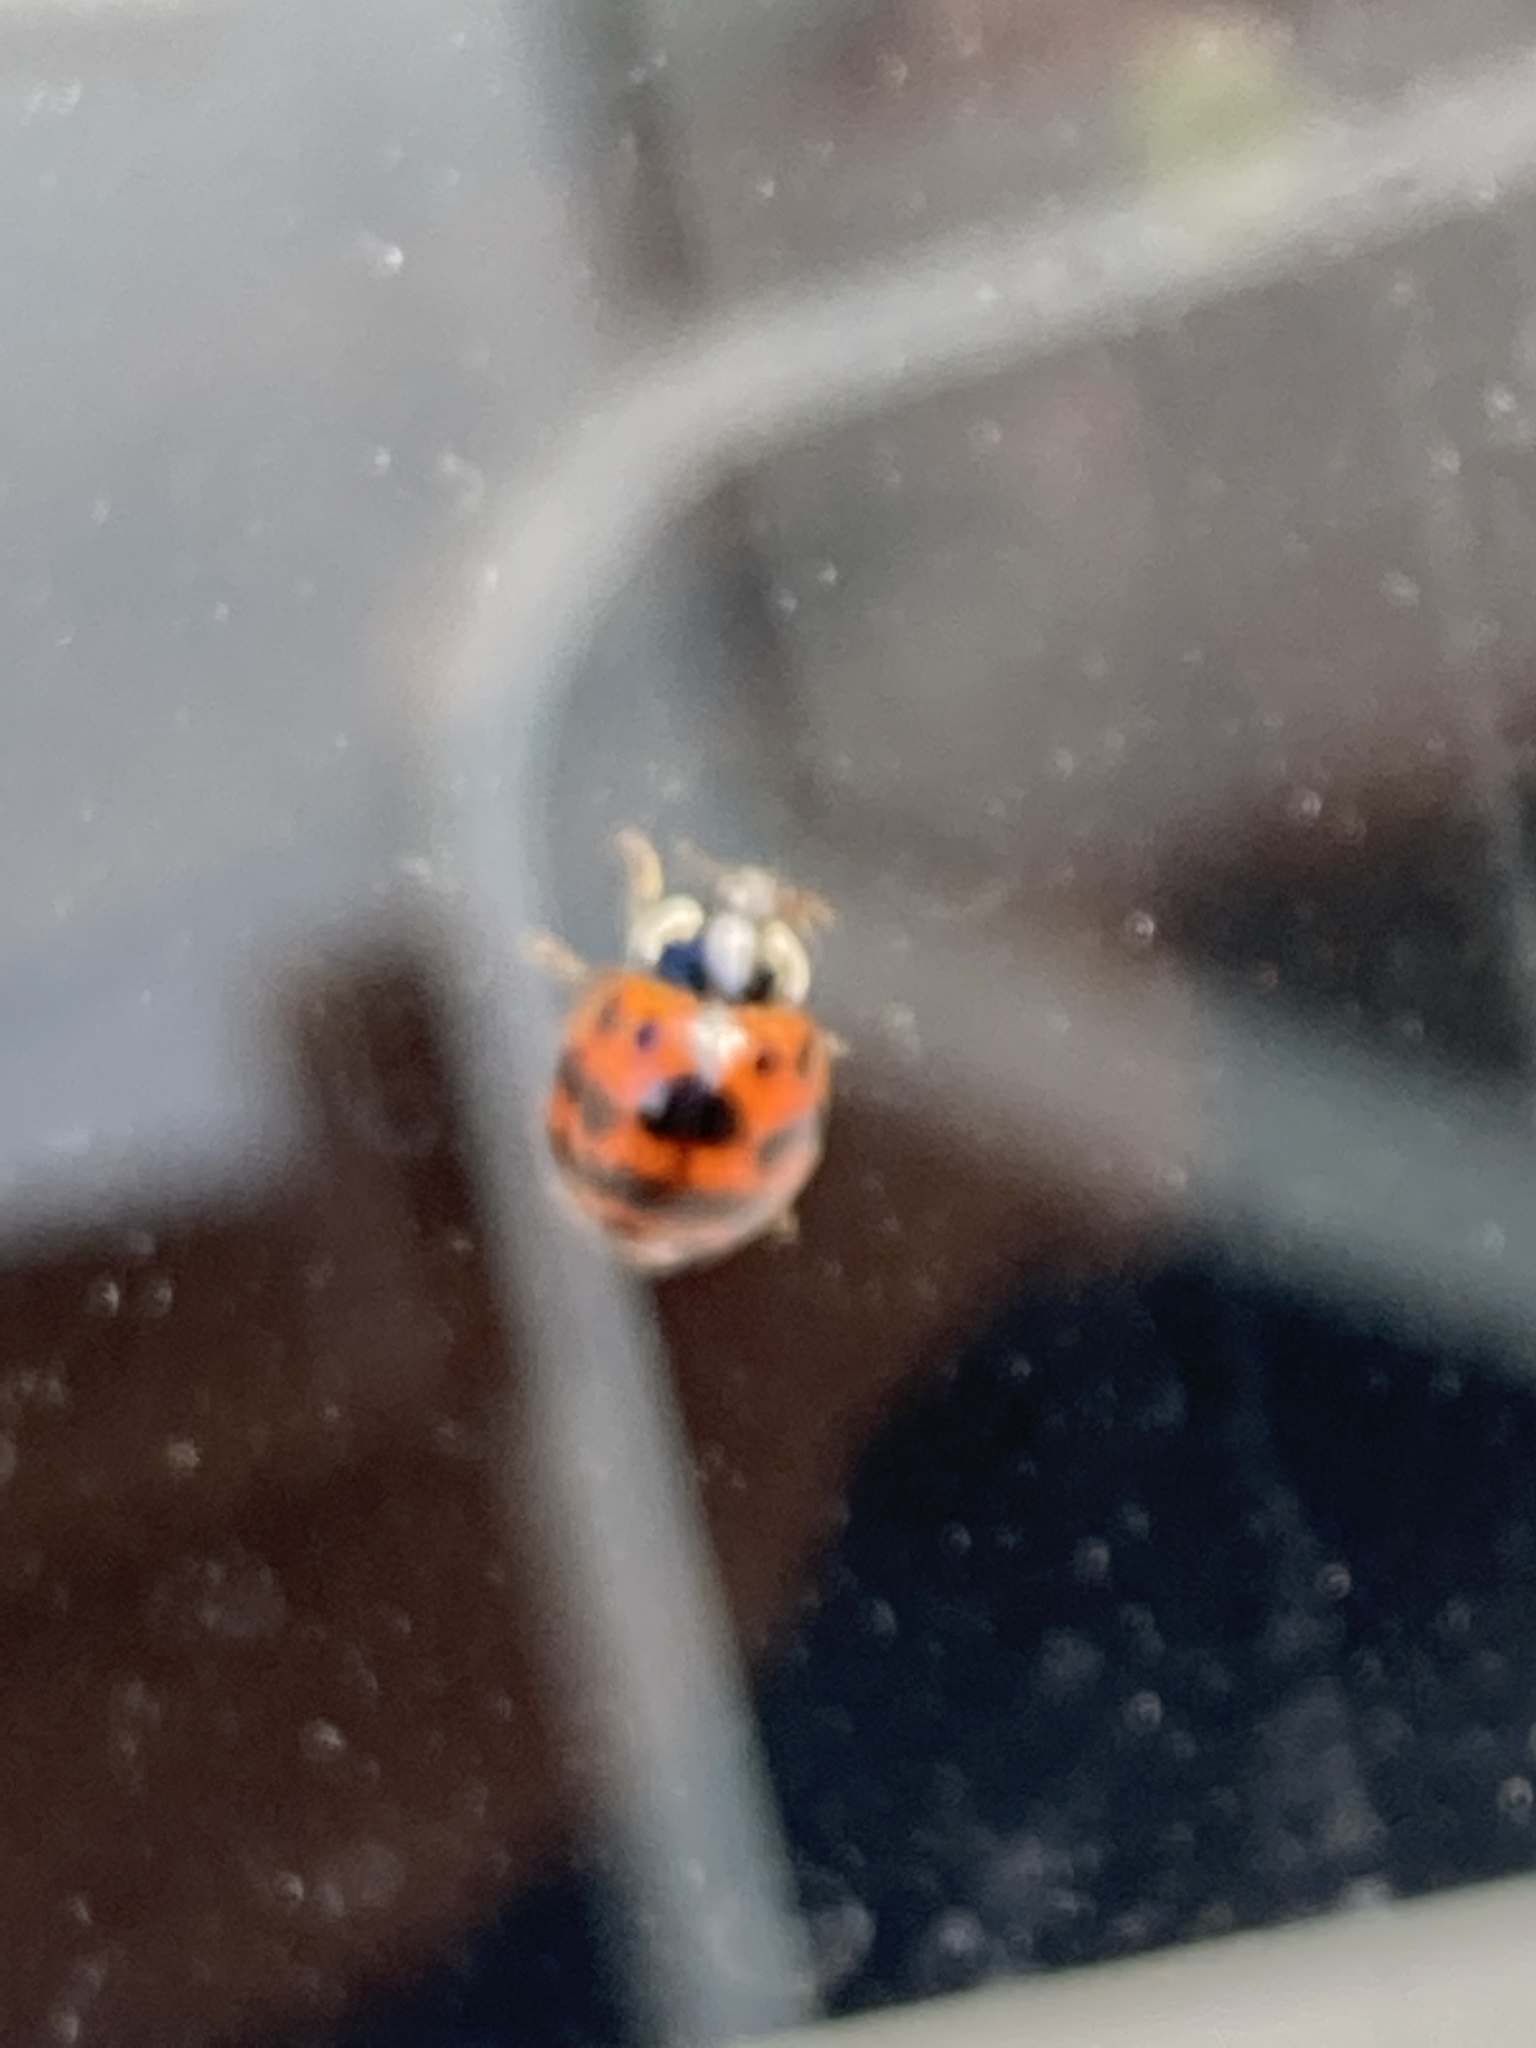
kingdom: Animalia
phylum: Arthropoda
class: Insecta
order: Coleoptera
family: Coccinellidae
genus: Harmonia
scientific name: Harmonia axyridis
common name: Harlequin ladybird
